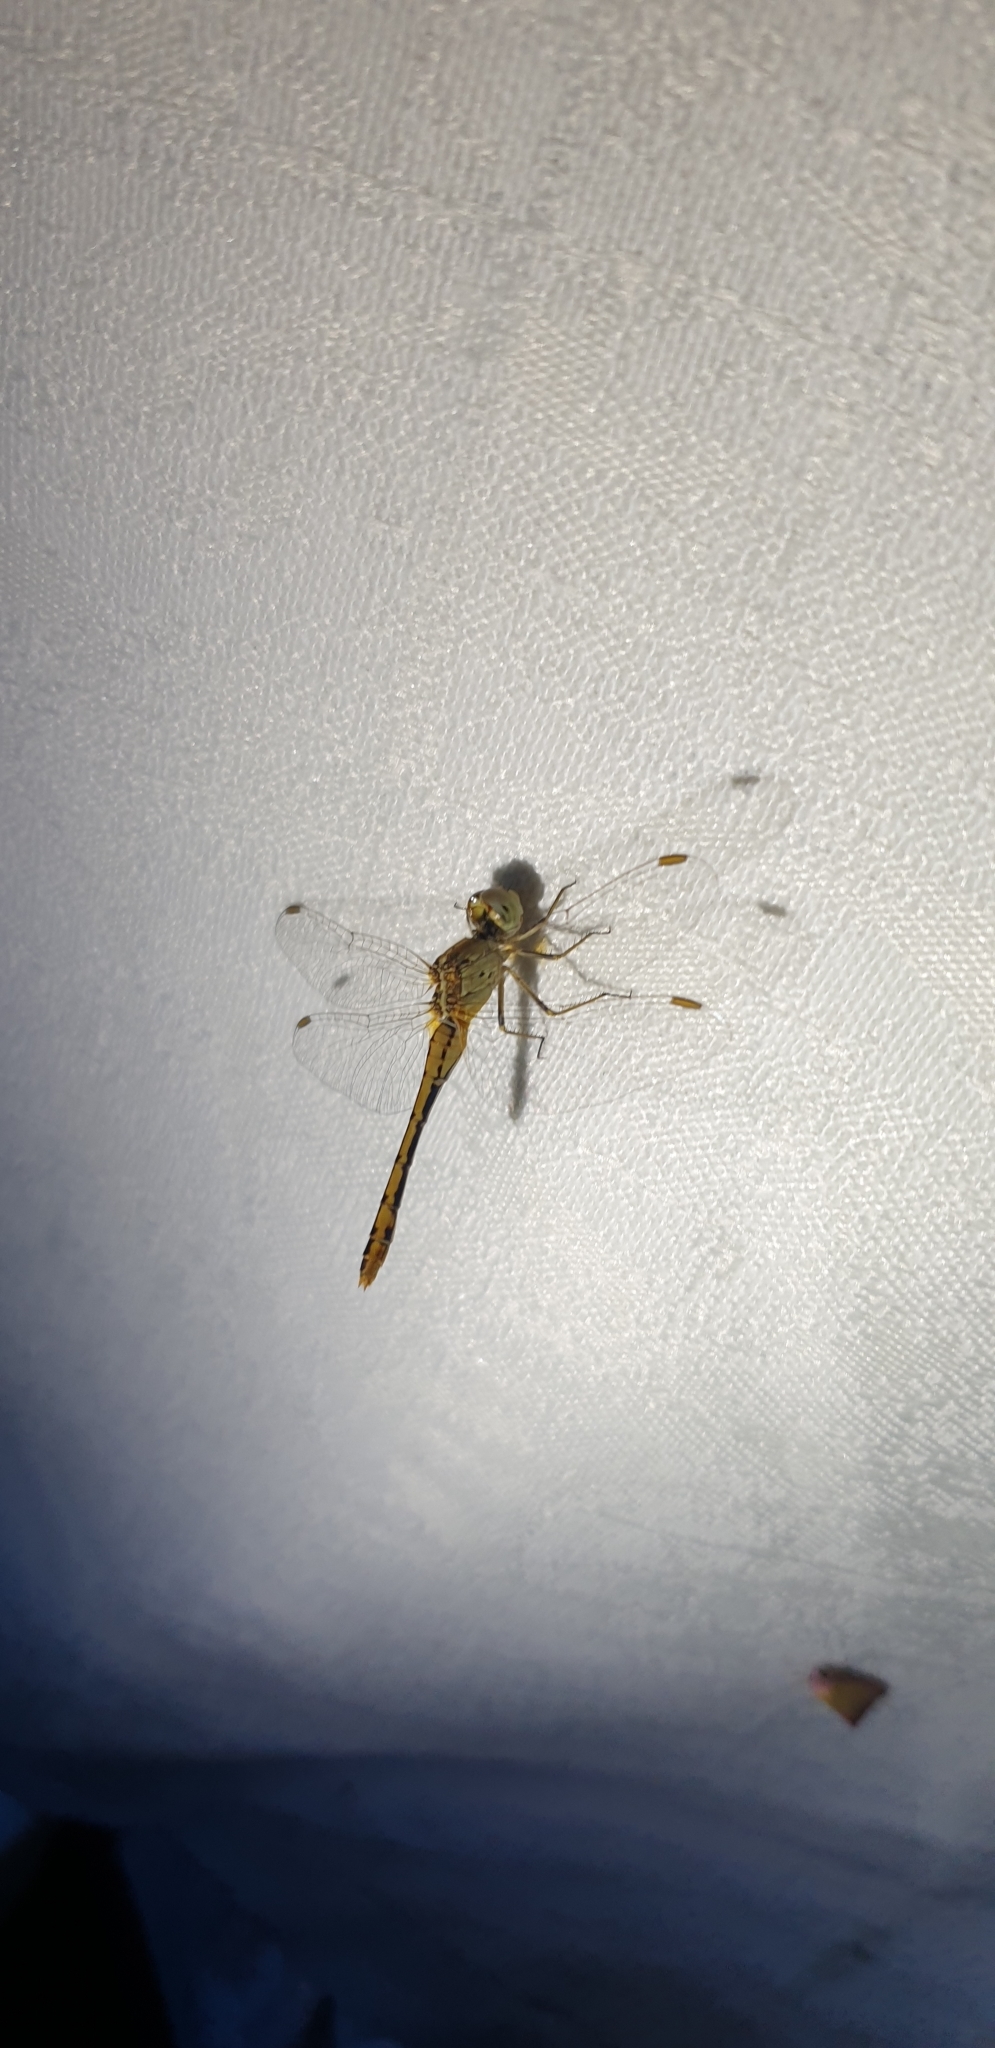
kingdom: Animalia
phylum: Arthropoda
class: Insecta
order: Odonata
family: Libellulidae
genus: Diplacodes
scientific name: Diplacodes bipunctata
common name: Red percher dragonfly
